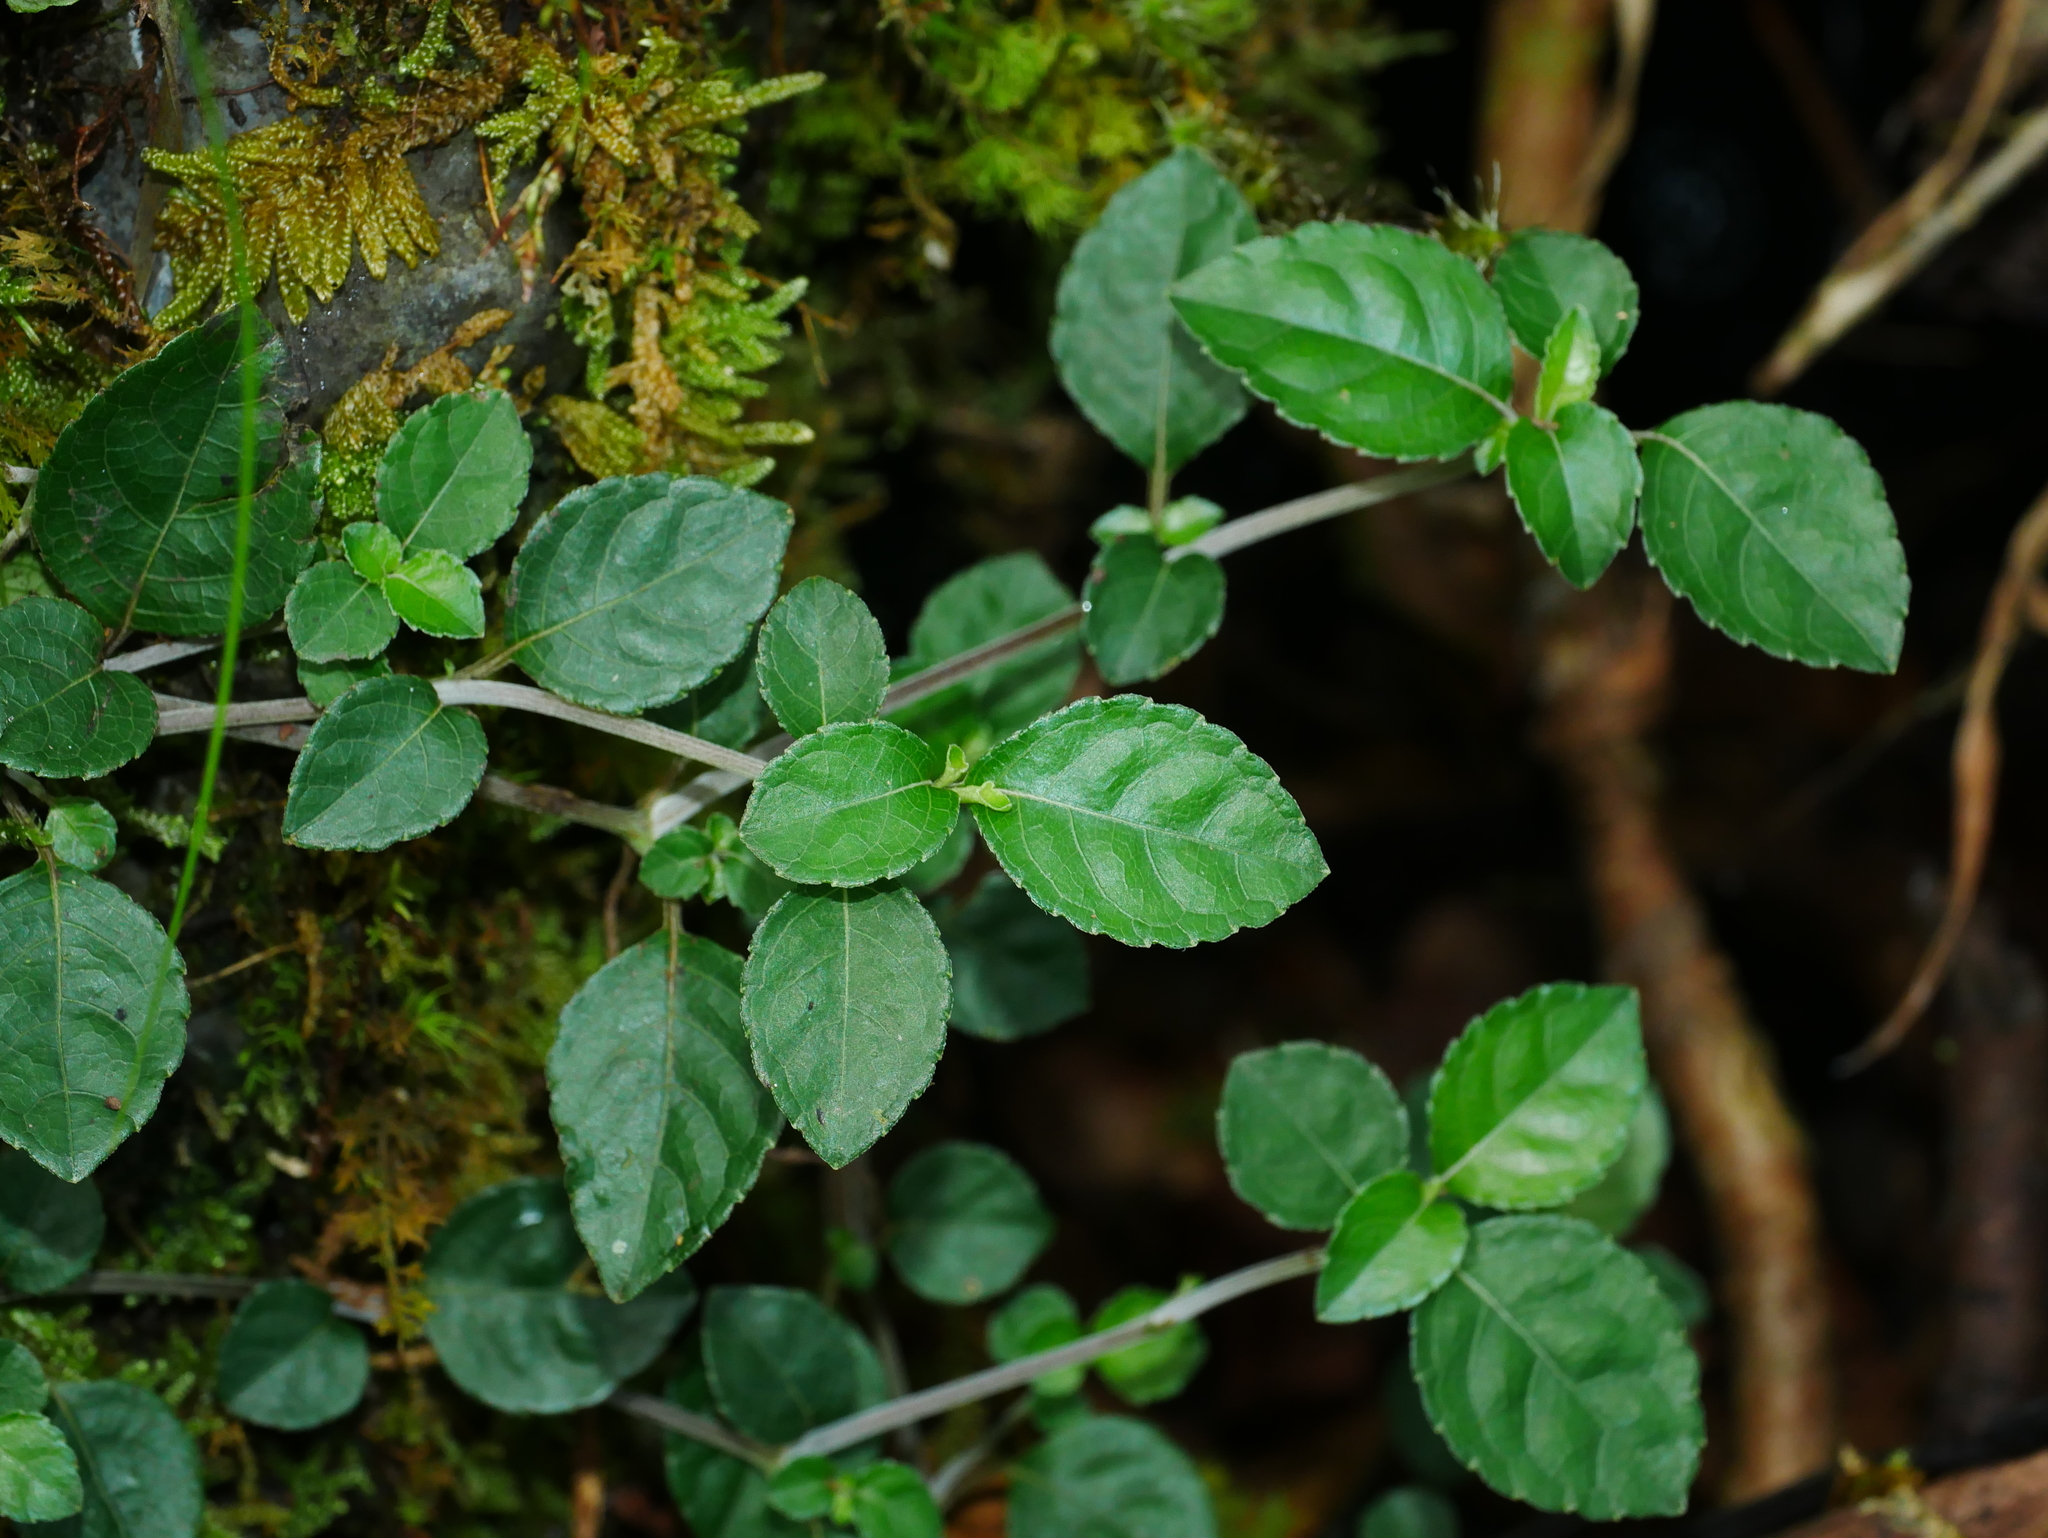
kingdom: Plantae
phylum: Tracheophyta
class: Magnoliopsida
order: Lamiales
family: Acanthaceae
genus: Strobilanthes
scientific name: Strobilanthes rankanensis
